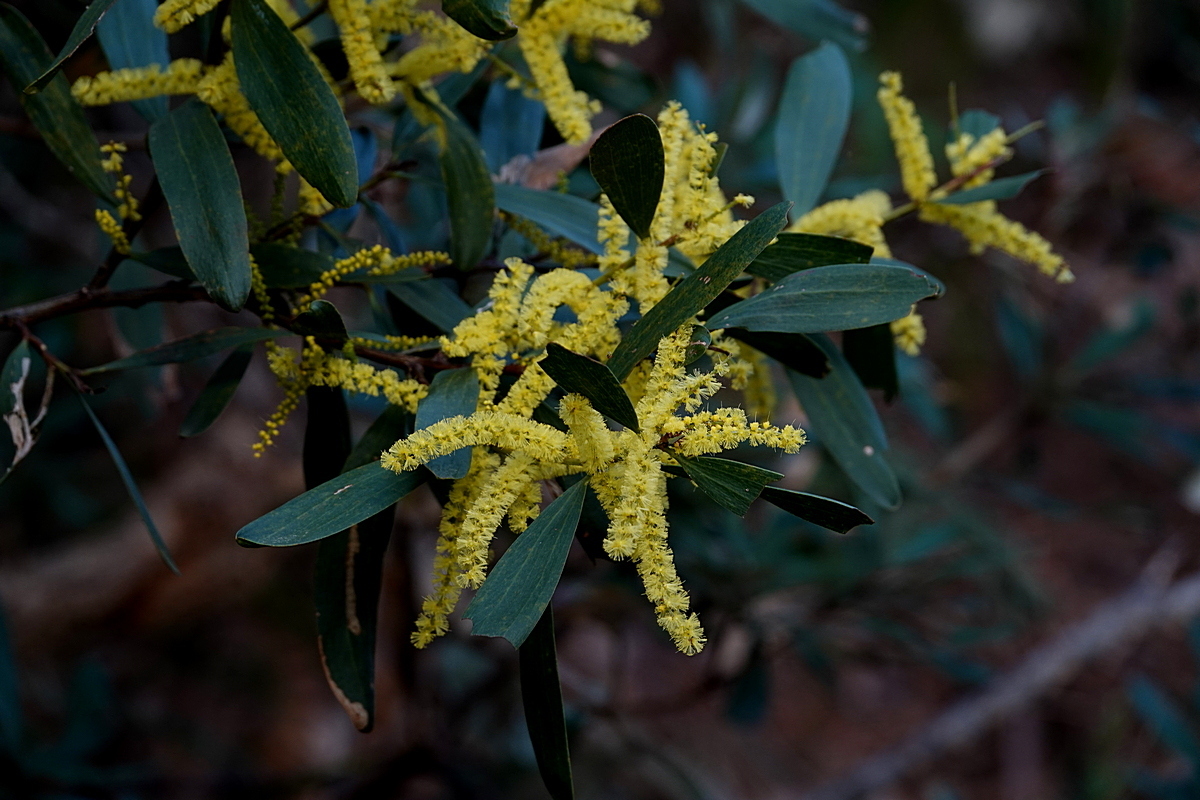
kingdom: Plantae
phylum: Tracheophyta
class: Magnoliopsida
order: Fabales
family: Fabaceae
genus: Acacia
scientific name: Acacia longifolia
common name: Sydney golden wattle
